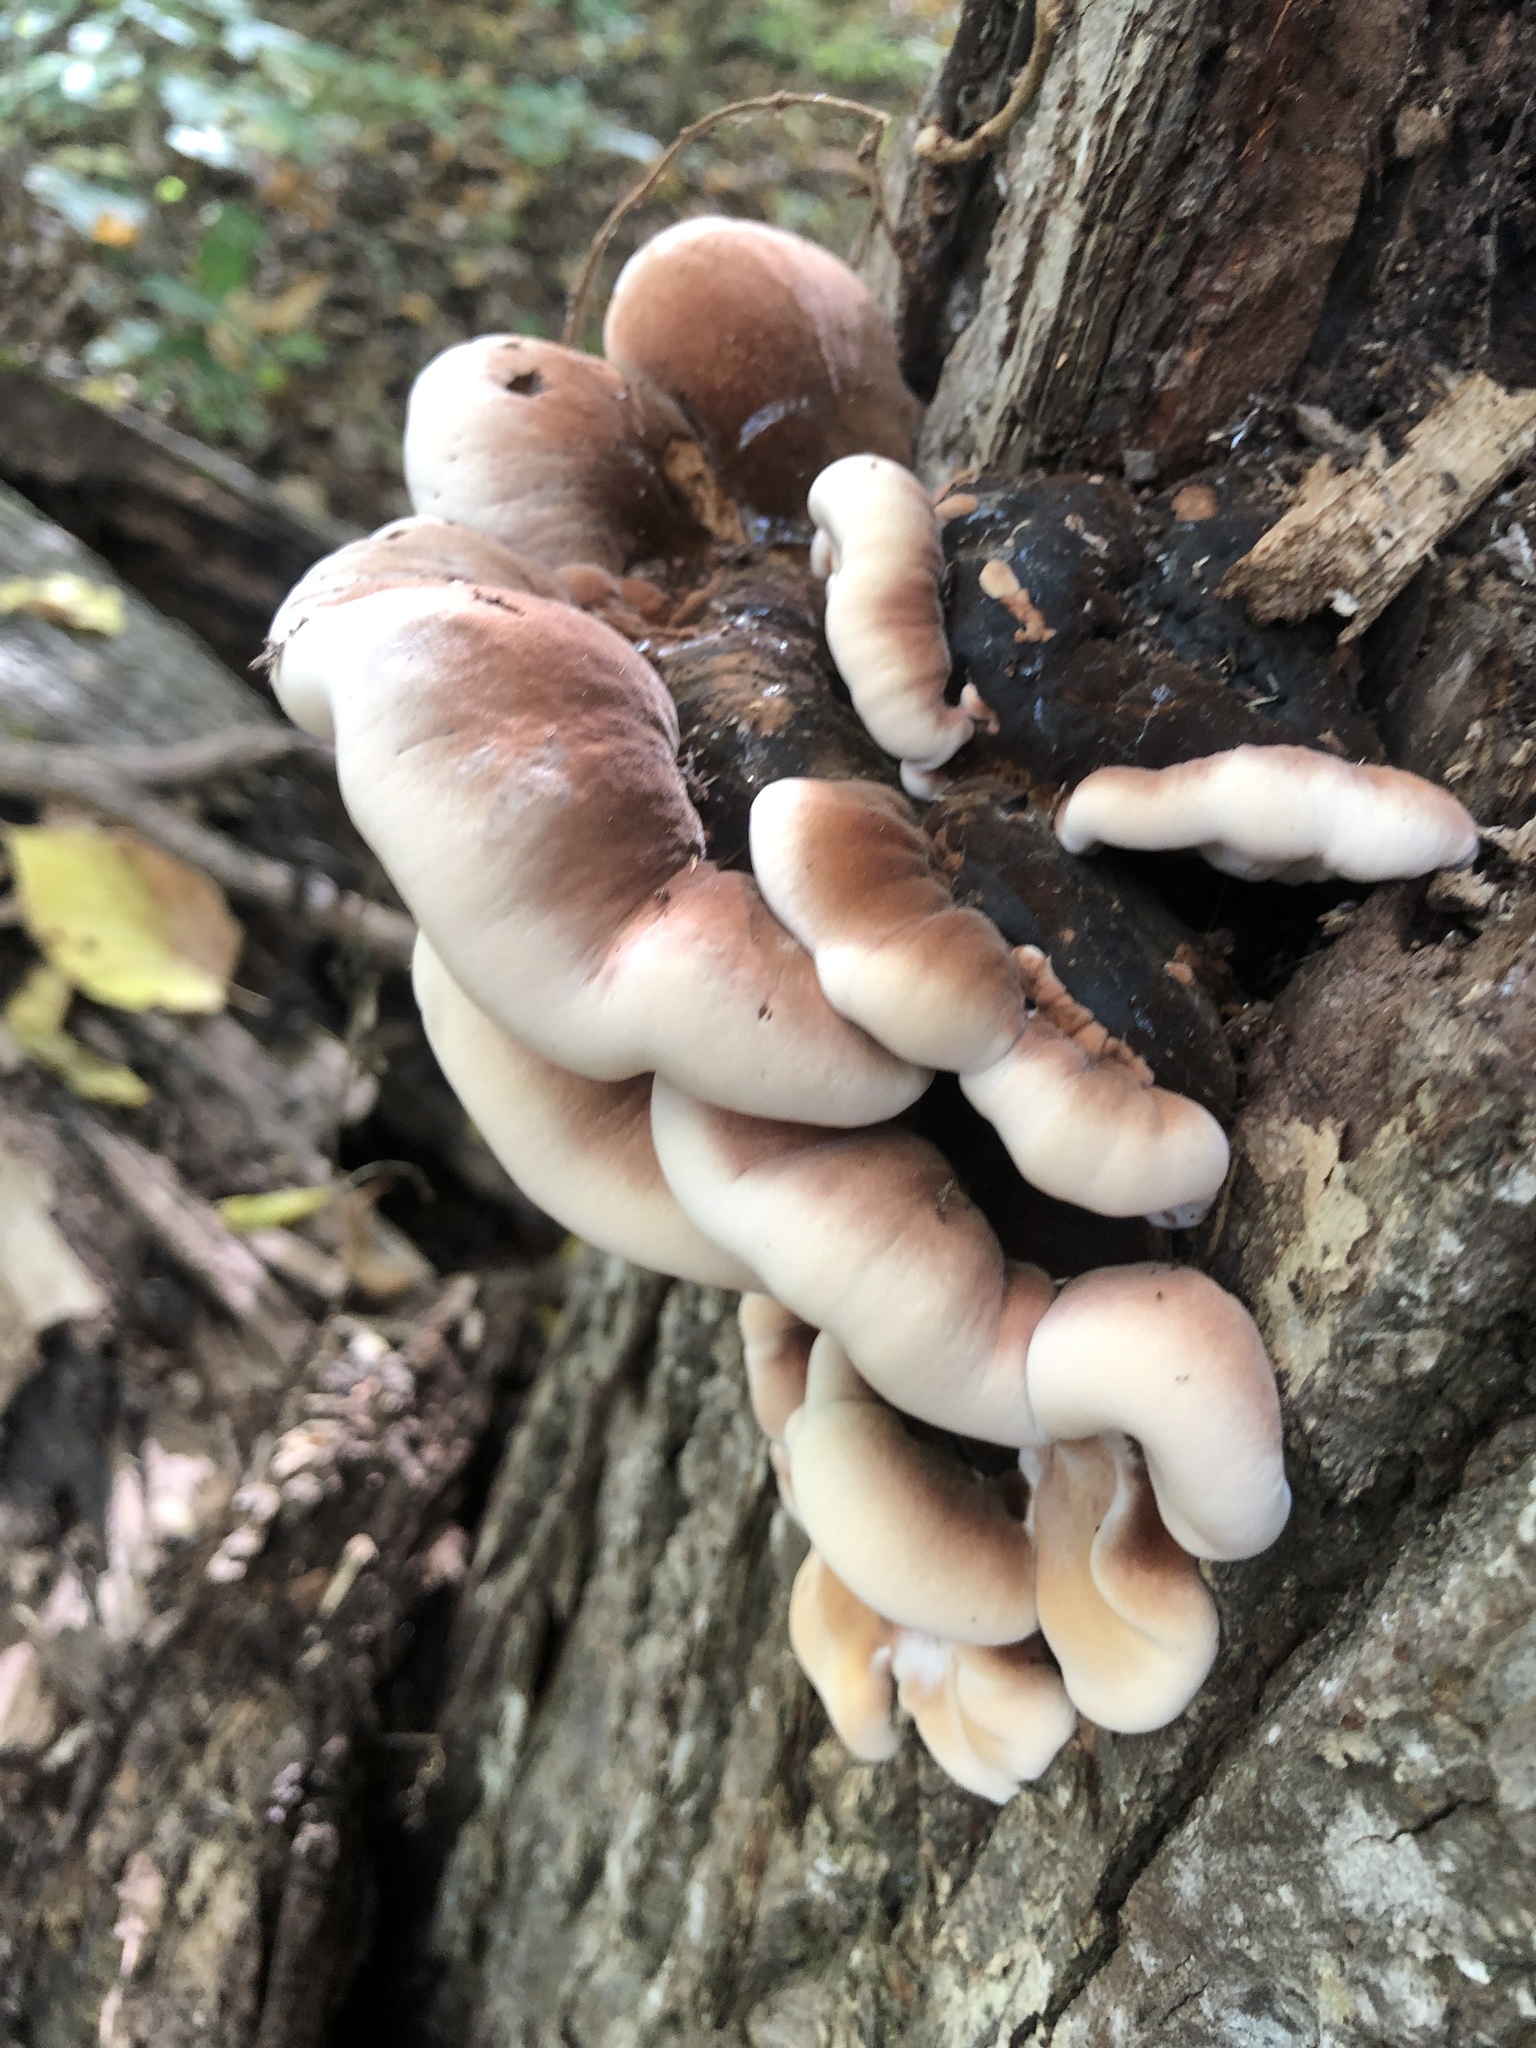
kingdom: Fungi
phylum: Basidiomycota
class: Agaricomycetes
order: Polyporales
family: Ischnodermataceae
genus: Ischnoderma
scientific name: Ischnoderma resinosum
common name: Resinous polypore
